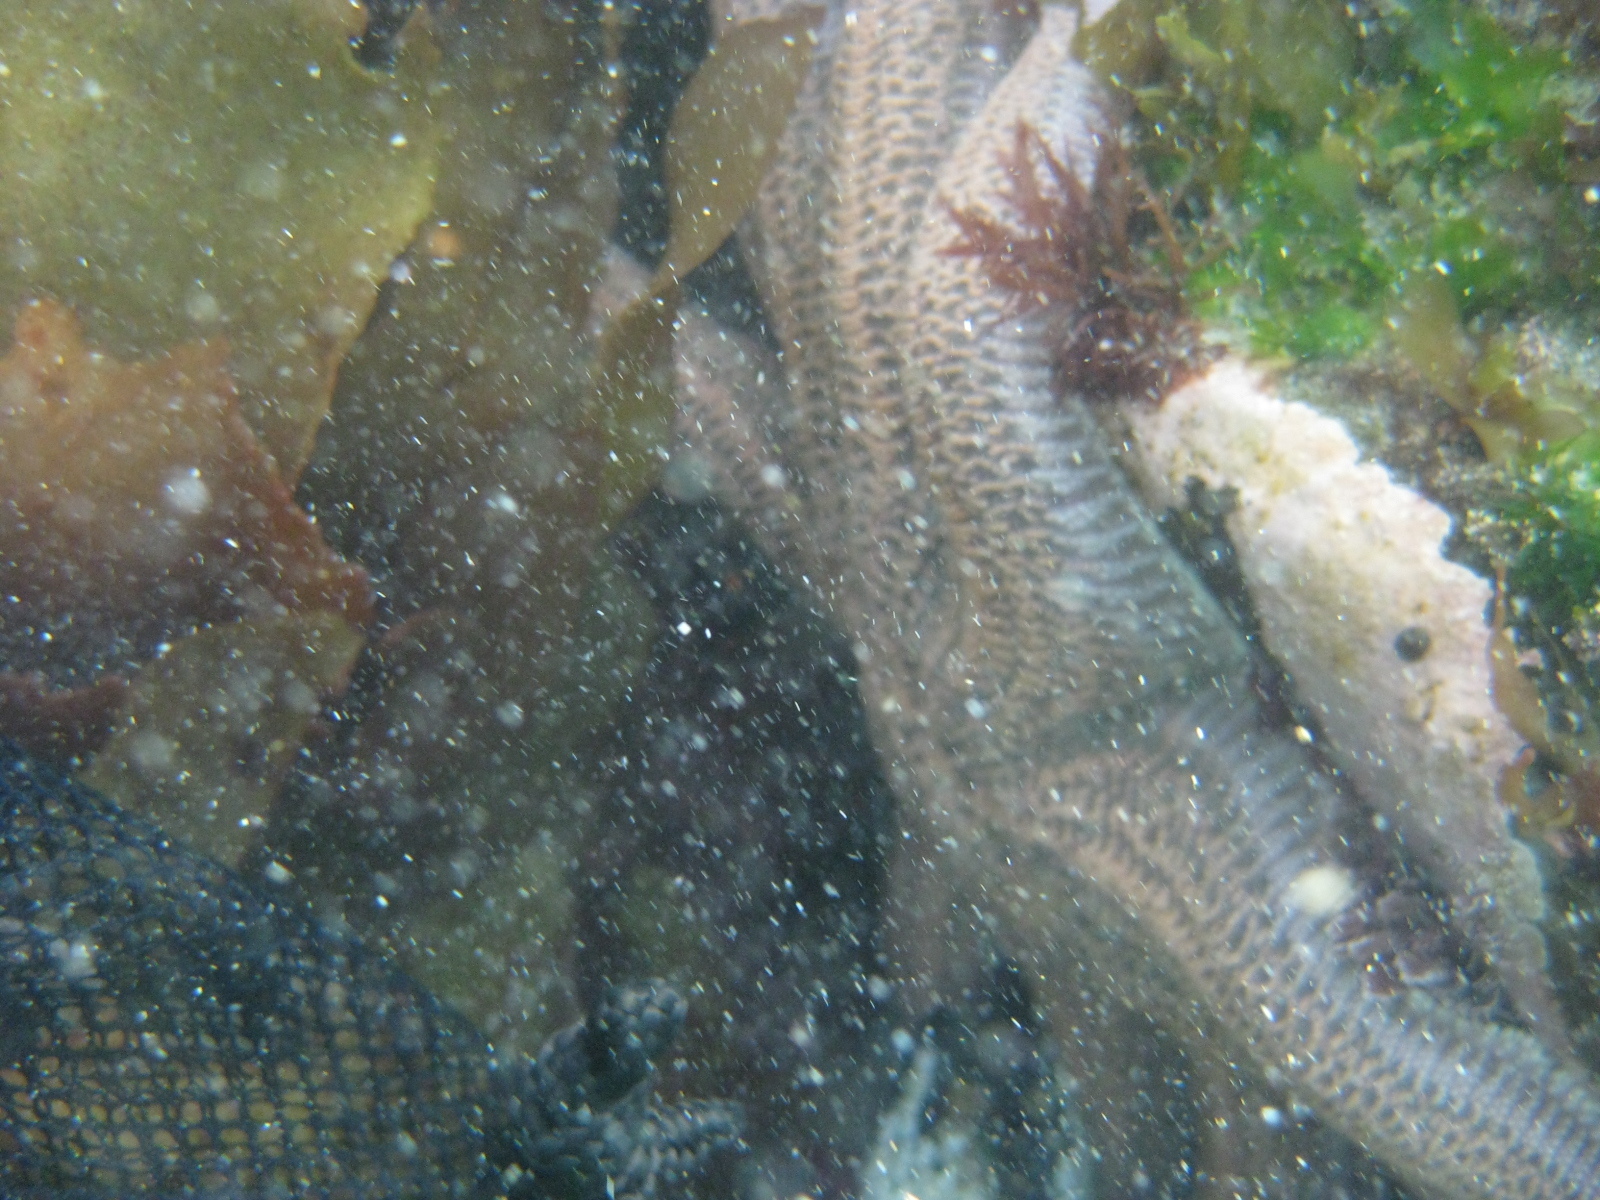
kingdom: Animalia
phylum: Echinodermata
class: Asteroidea
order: Forcipulatida
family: Stichasteridae
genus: Stichaster
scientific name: Stichaster australis
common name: Reef starfish
